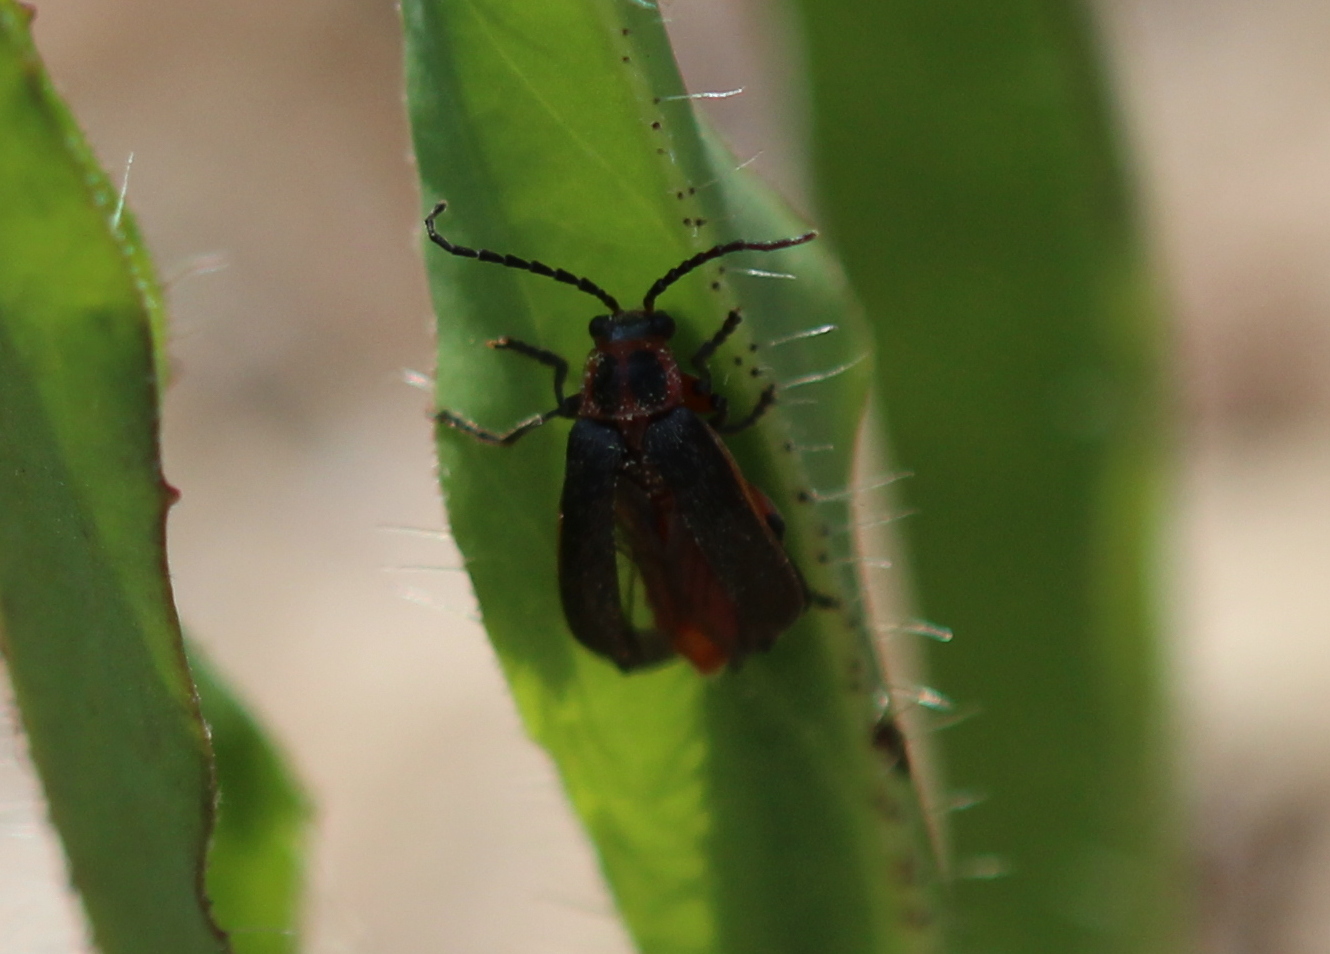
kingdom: Animalia
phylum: Arthropoda
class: Insecta
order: Coleoptera
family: Cantharidae
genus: Atalantycha
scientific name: Atalantycha bilineata
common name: Two-lined leatherwing
